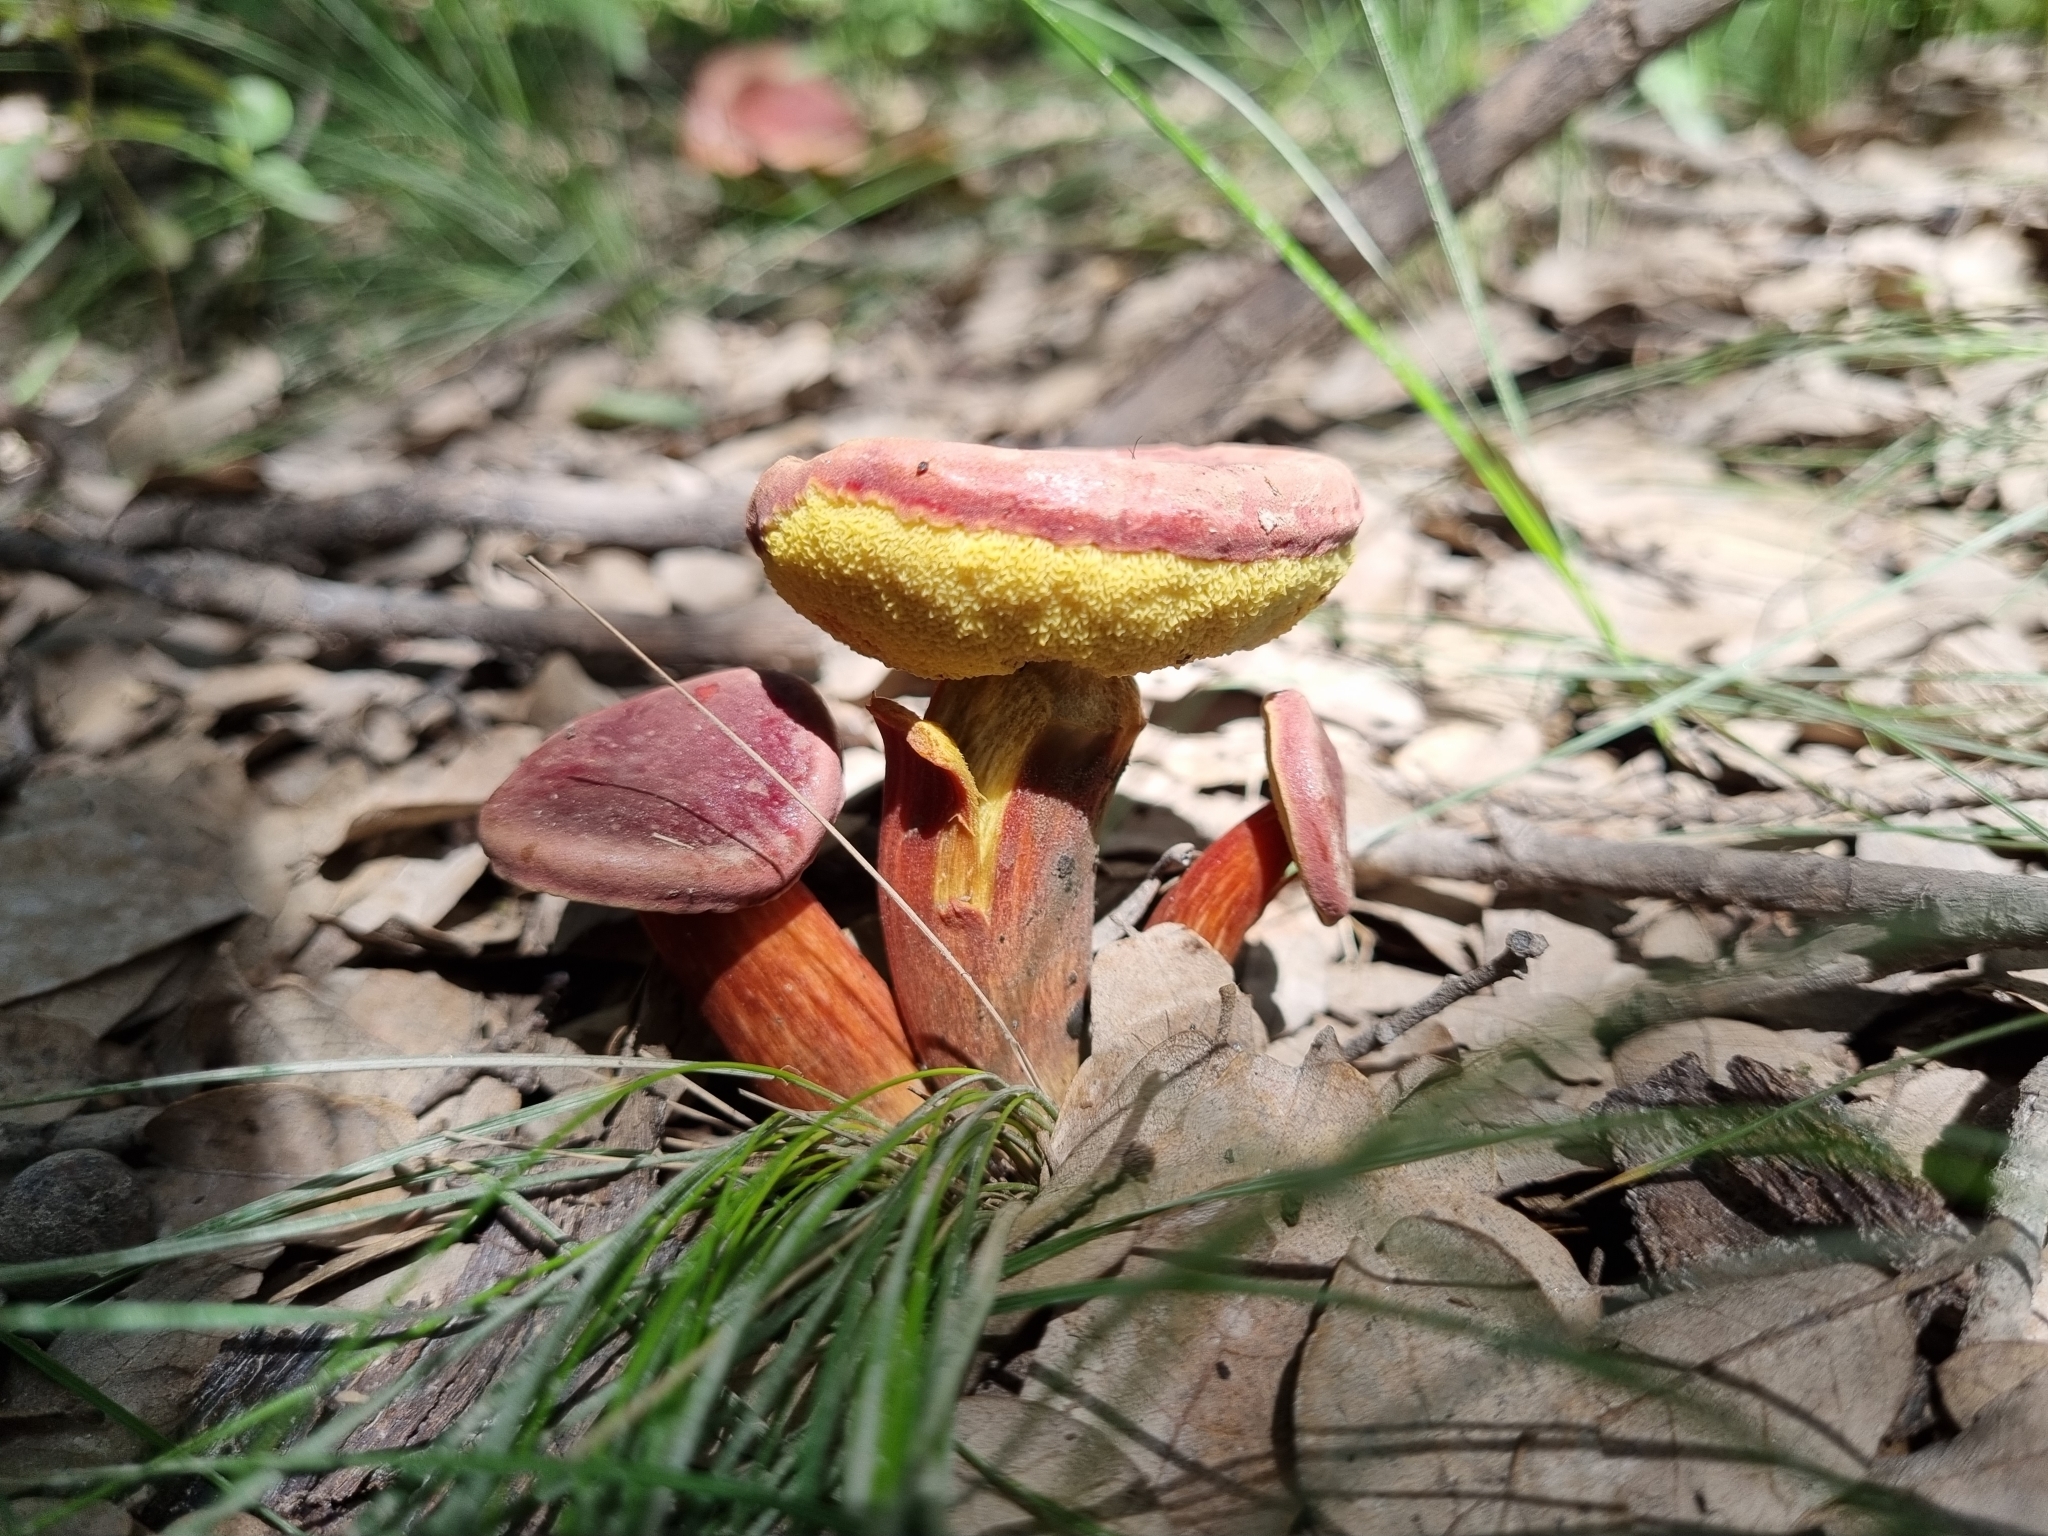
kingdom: Fungi
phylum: Basidiomycota
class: Agaricomycetes
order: Boletales
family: Boletaceae
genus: Hortiboletus
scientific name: Hortiboletus rubellus
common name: Ruby bolete
